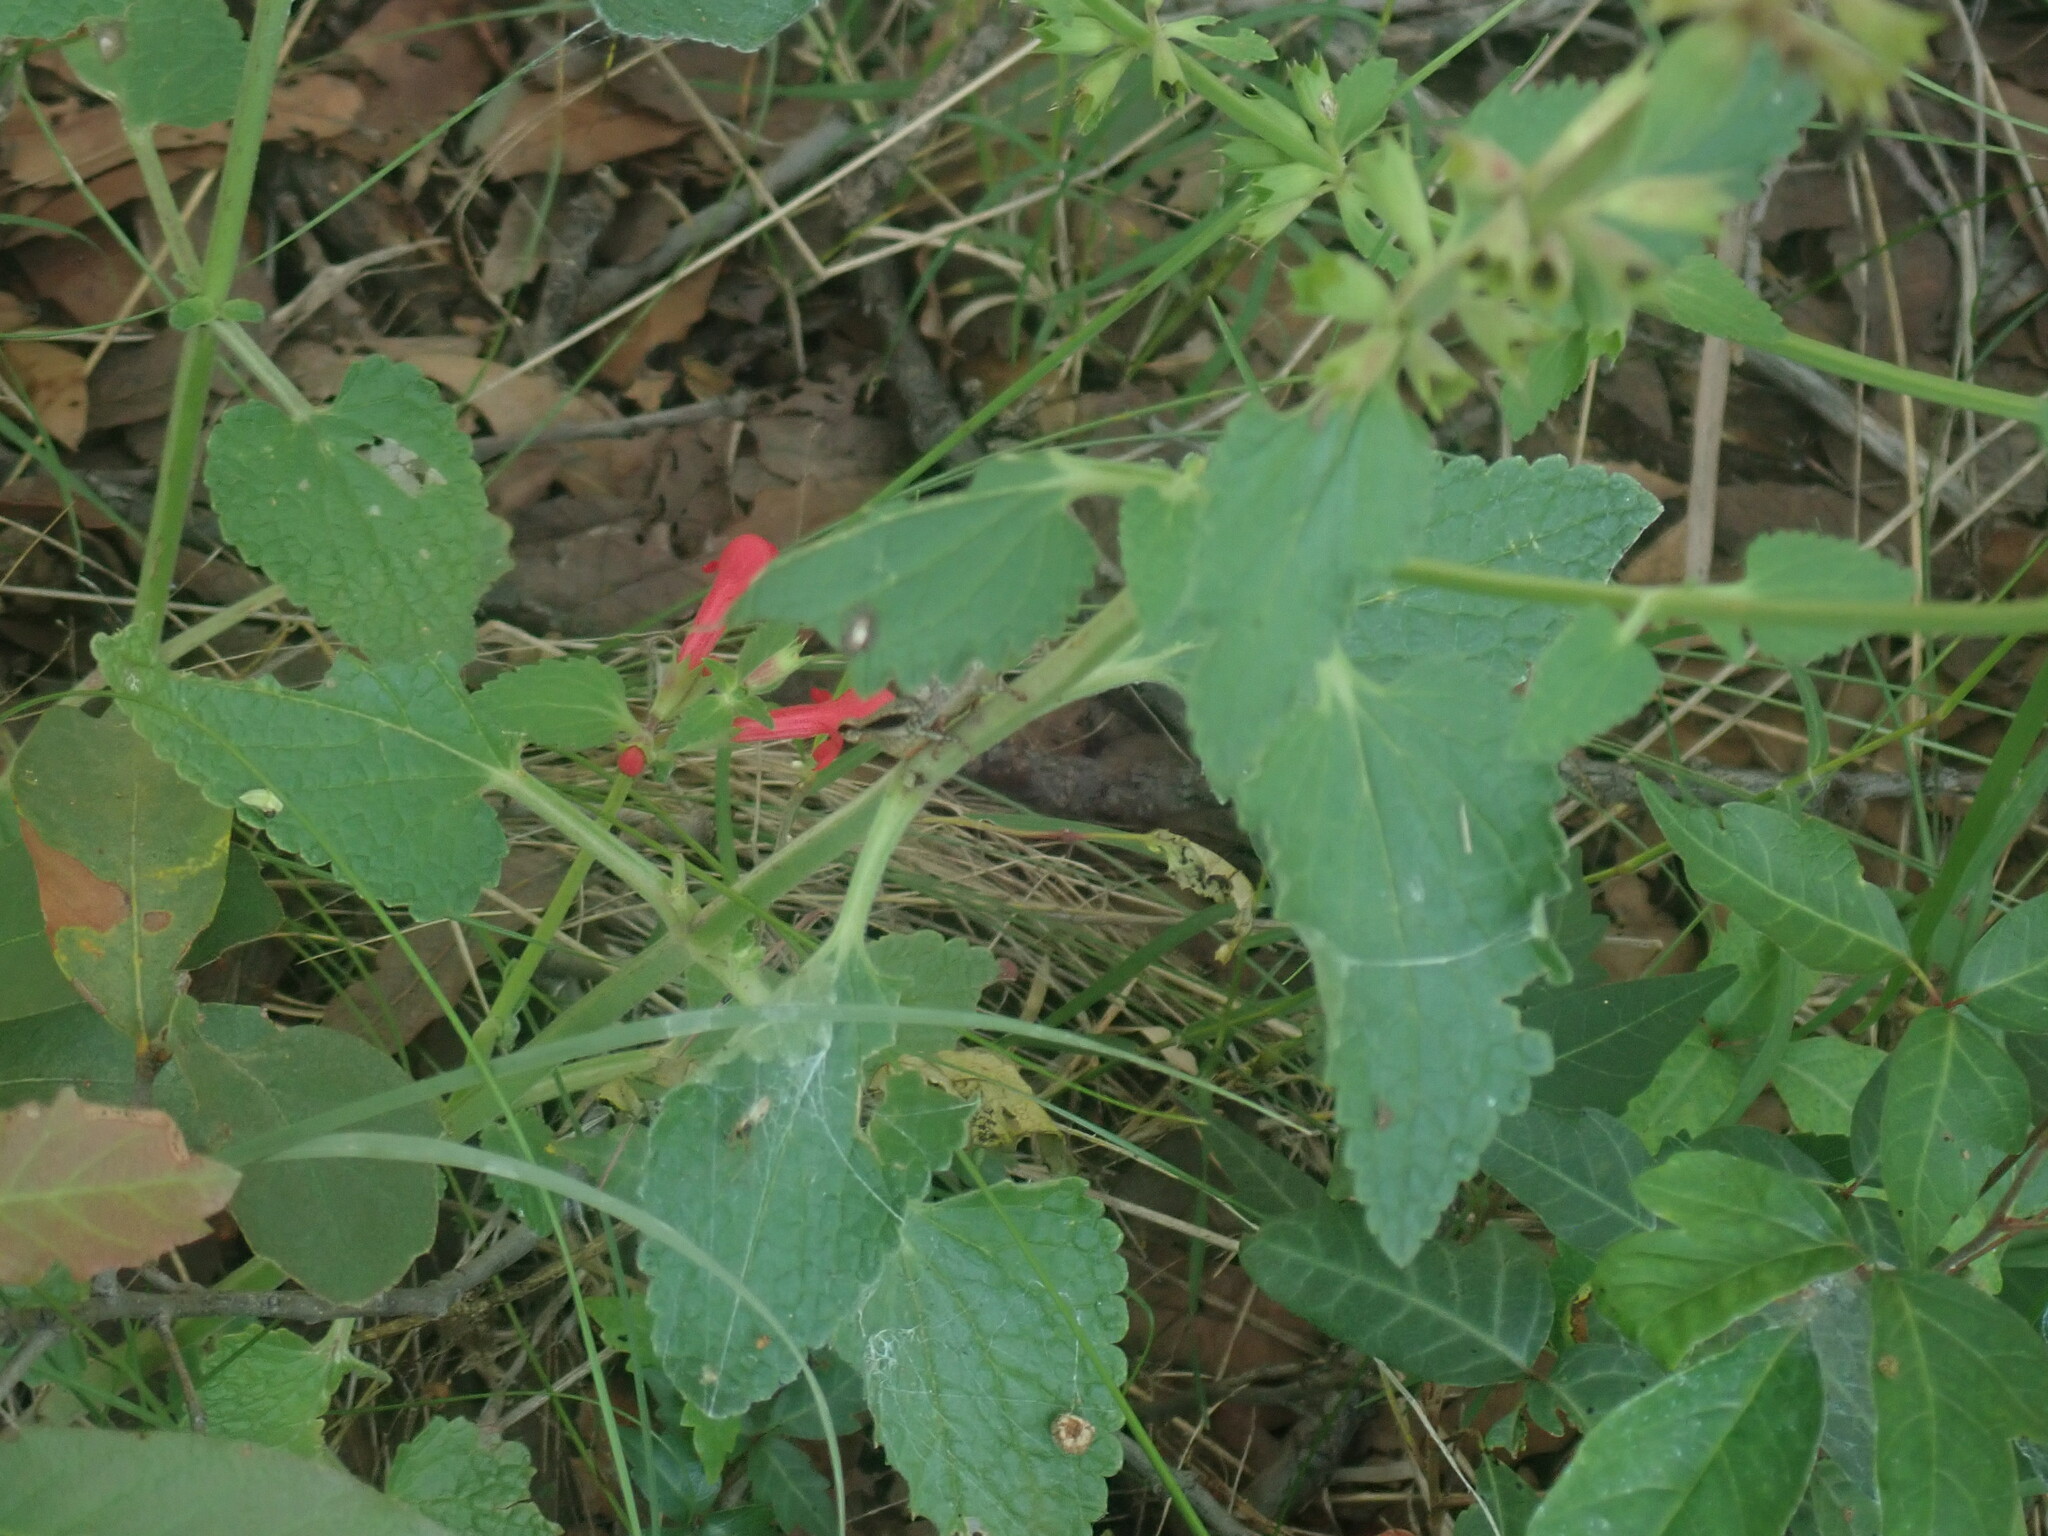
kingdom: Plantae
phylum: Tracheophyta
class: Magnoliopsida
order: Lamiales
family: Lamiaceae
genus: Stachys
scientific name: Stachys coccinea
